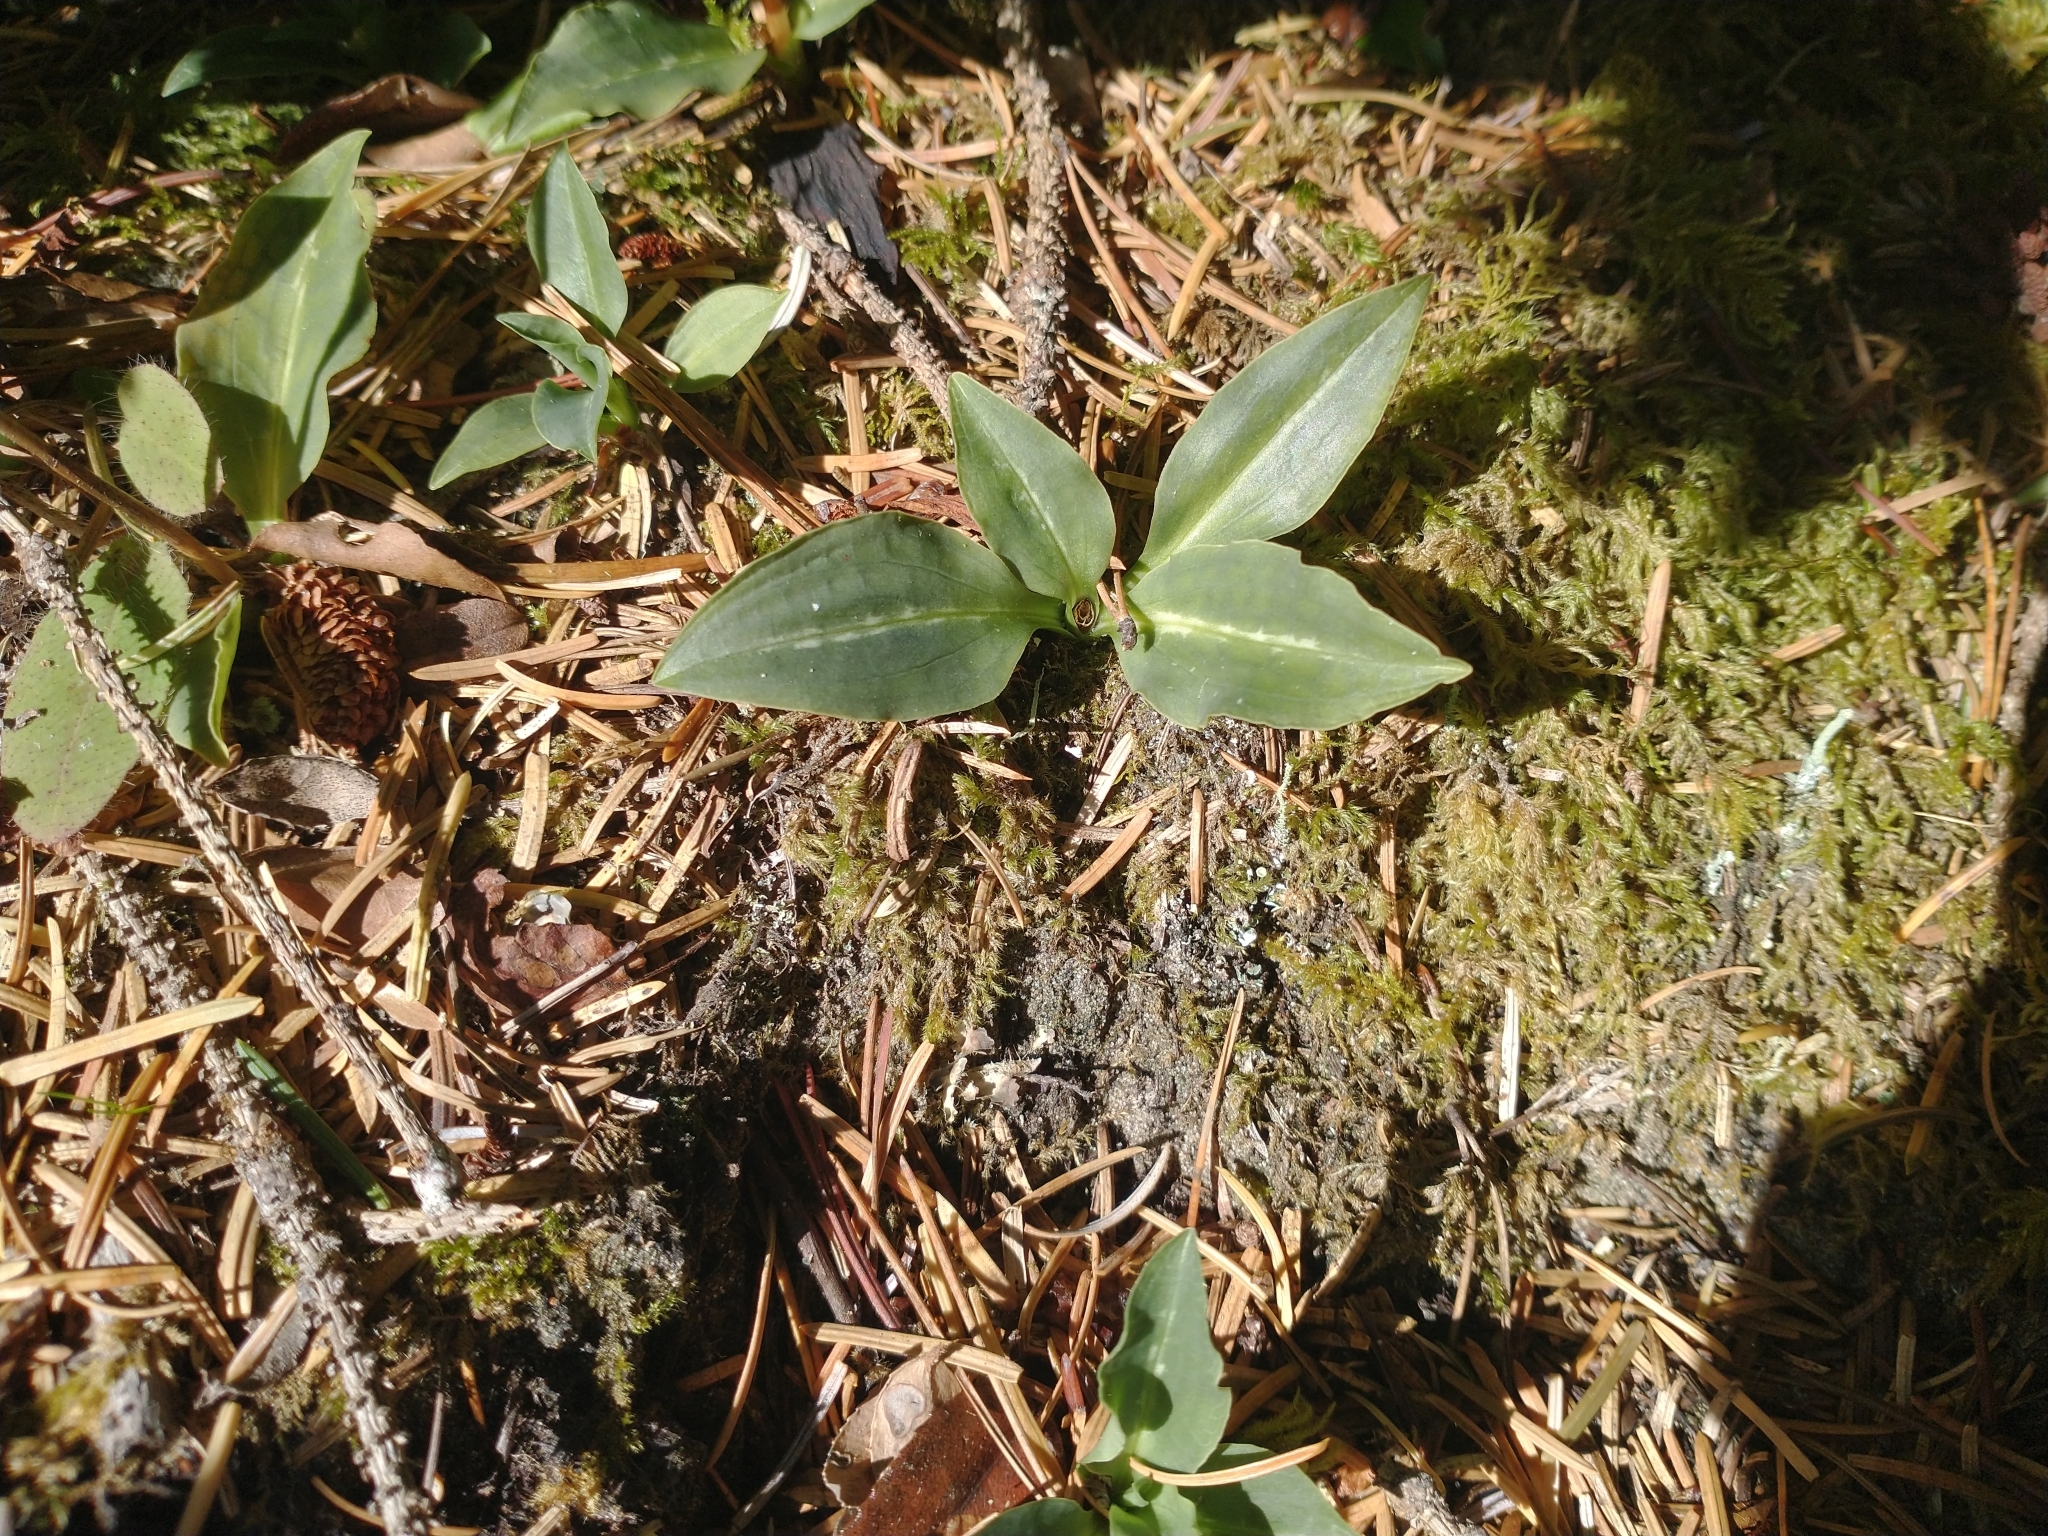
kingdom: Plantae
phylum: Tracheophyta
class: Liliopsida
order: Asparagales
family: Orchidaceae
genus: Goodyera
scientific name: Goodyera oblongifolia
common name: Giant rattlesnake-plantain
